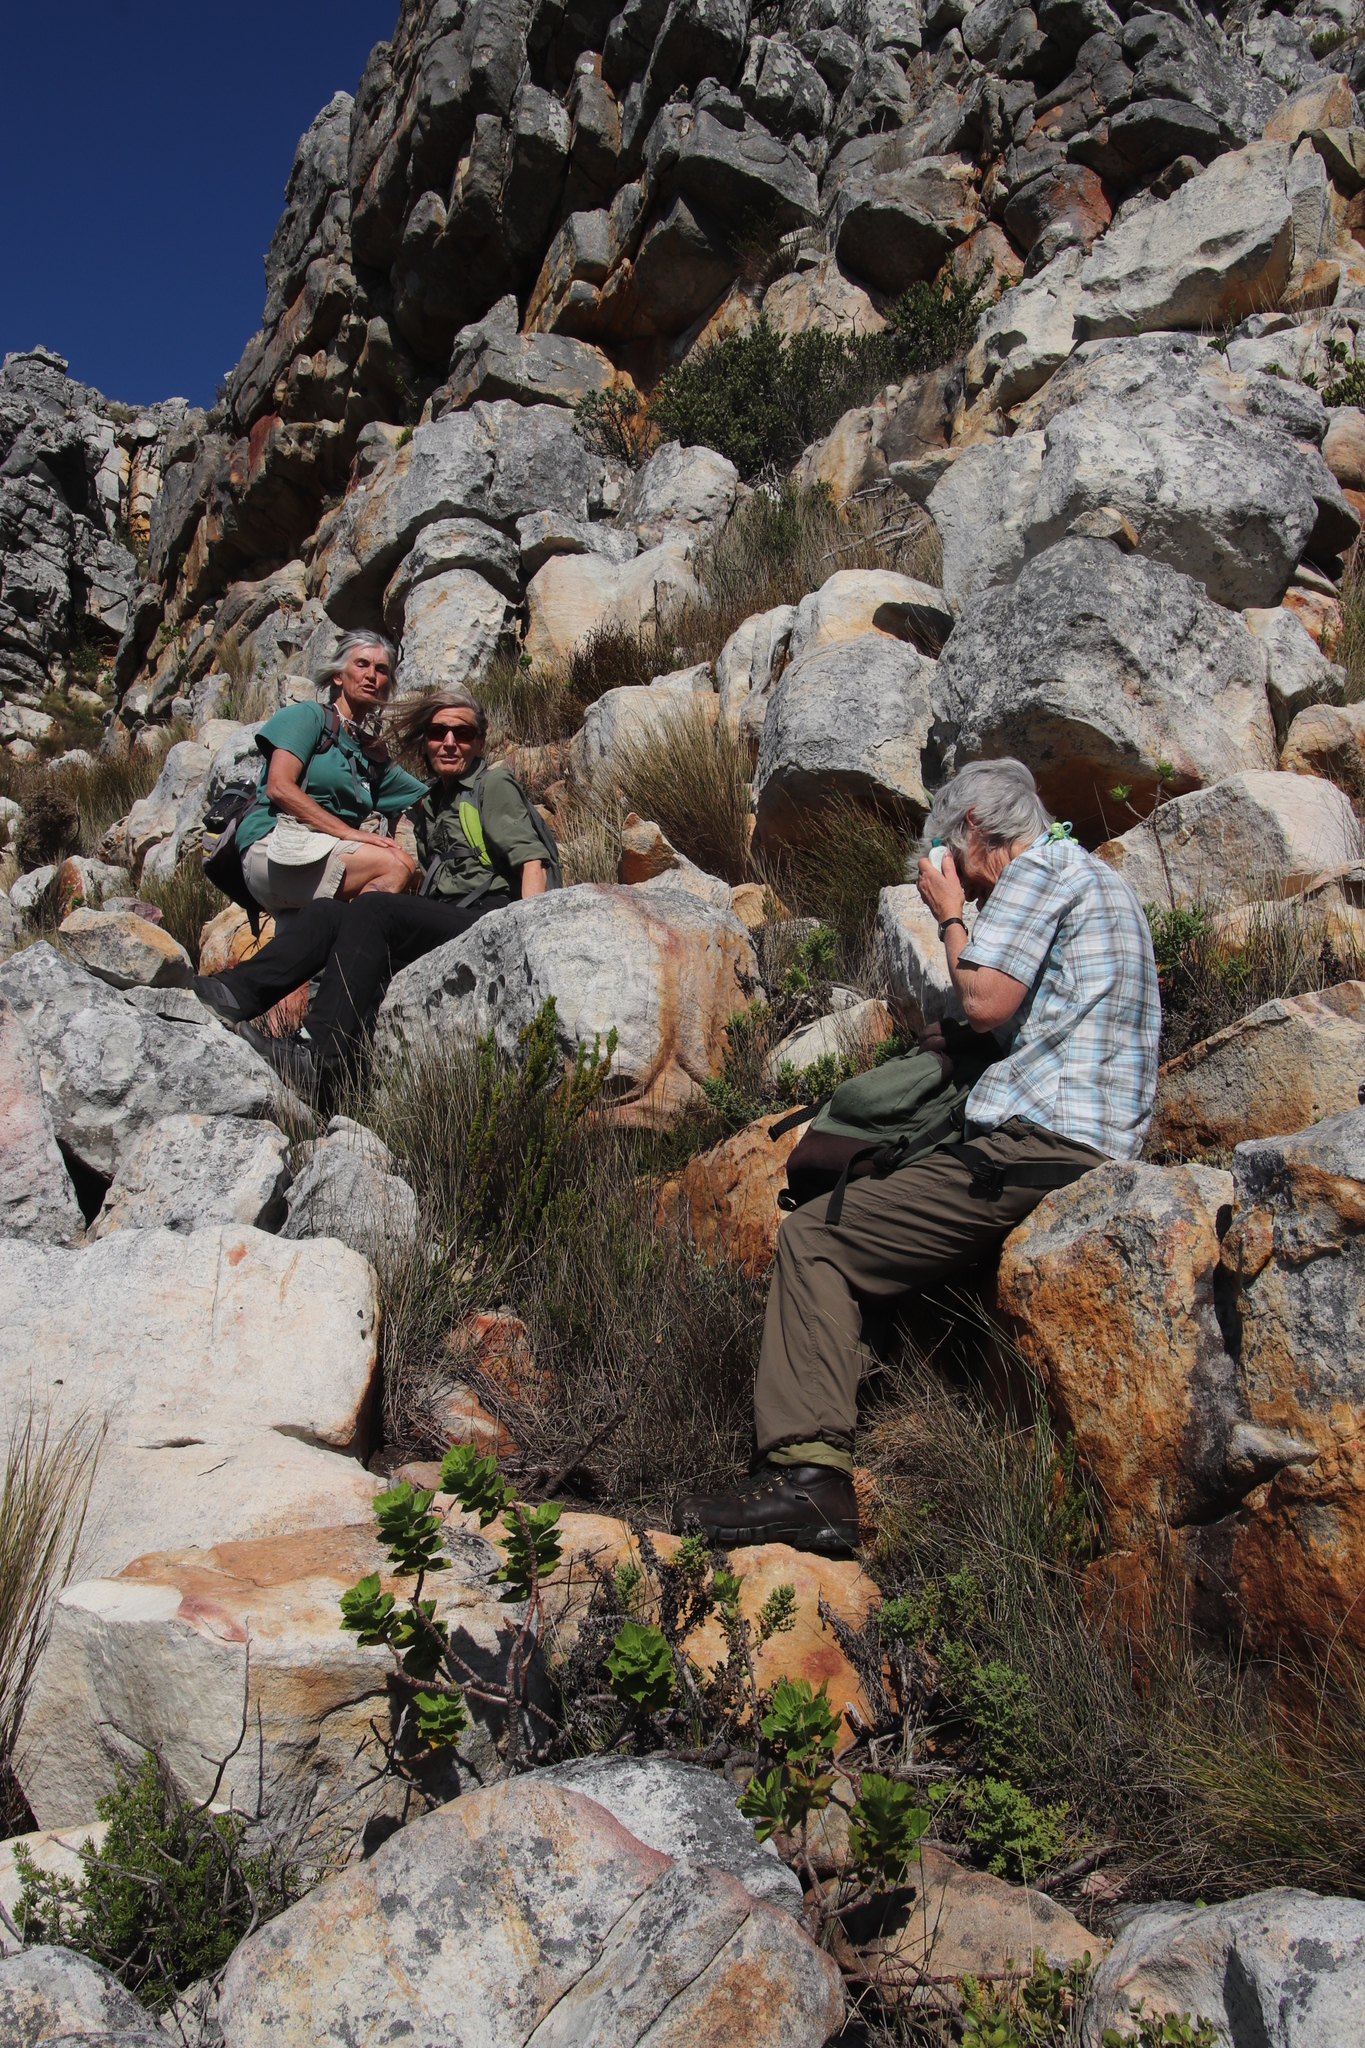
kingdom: Plantae
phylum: Tracheophyta
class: Magnoliopsida
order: Geraniales
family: Geraniaceae
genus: Pelargonium
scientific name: Pelargonium cucullatum
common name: Tree pelargonium
